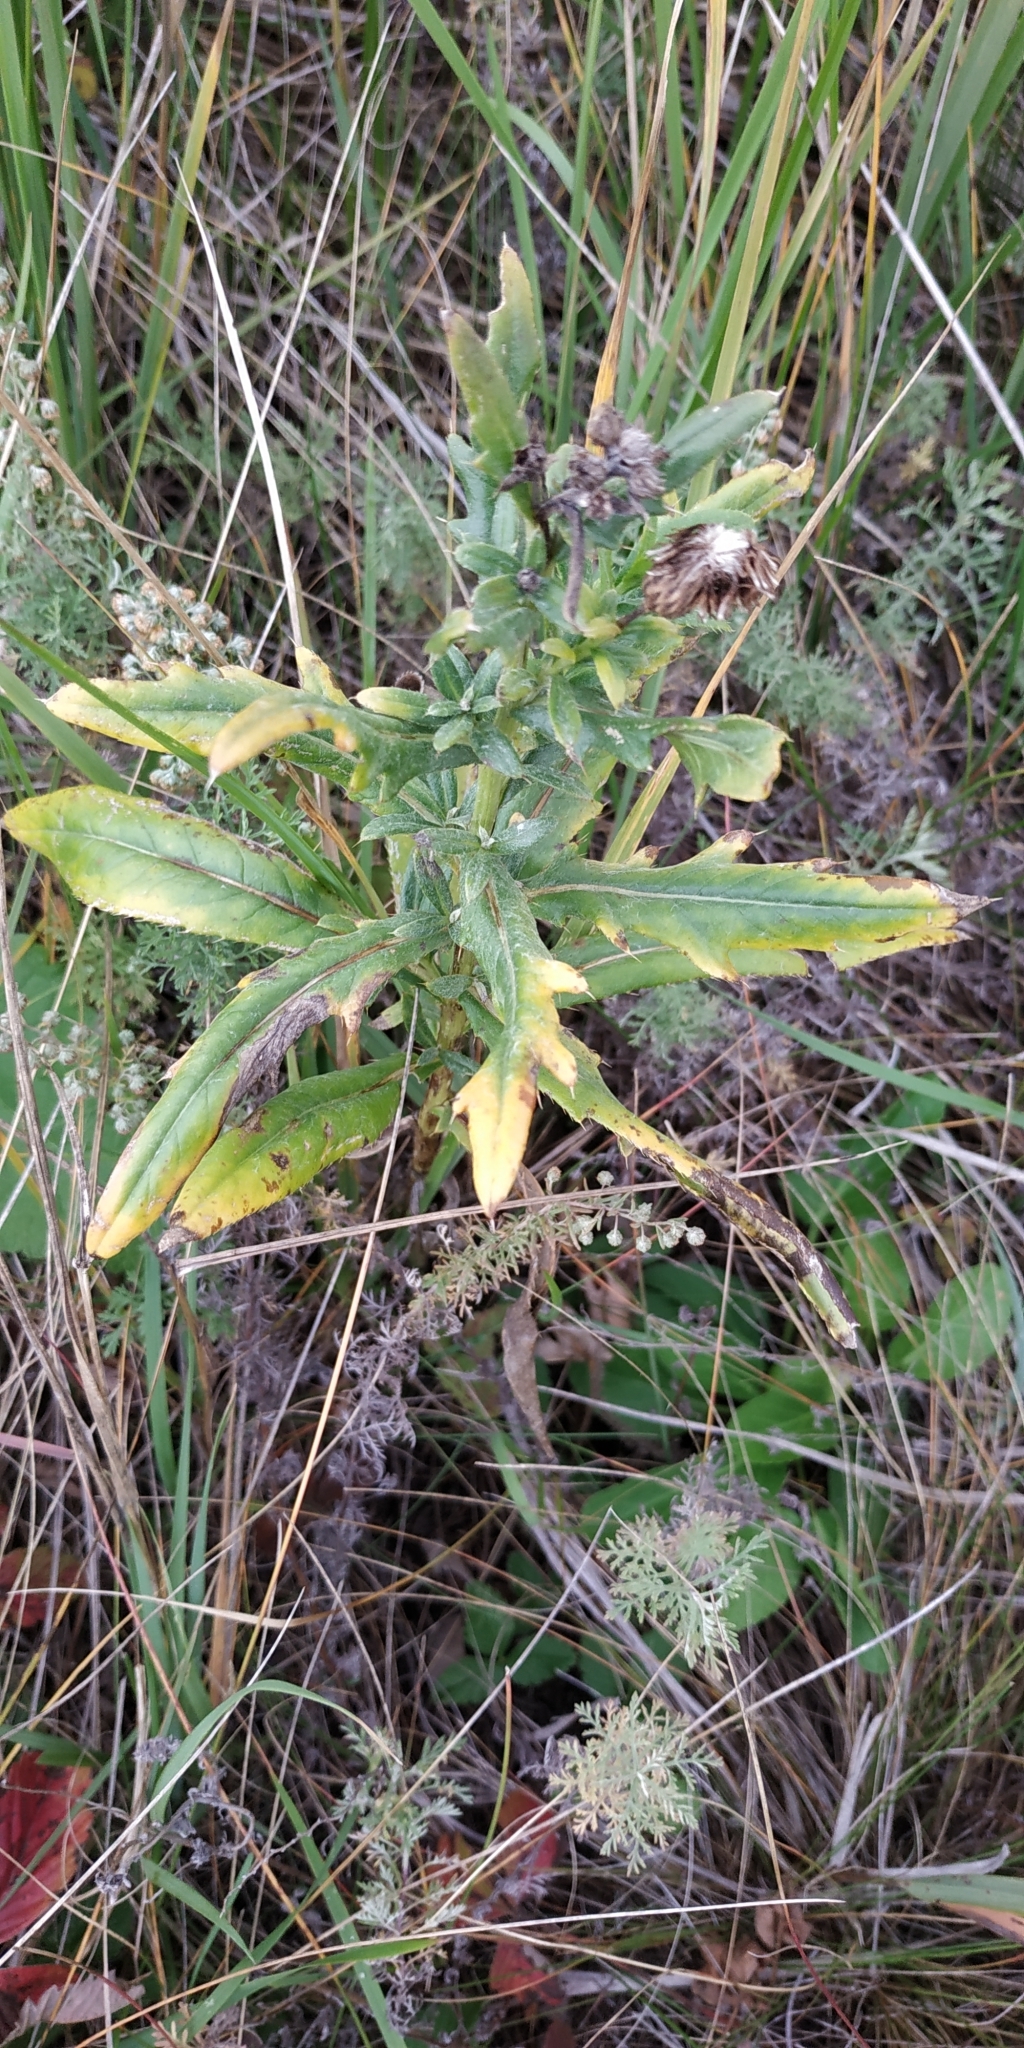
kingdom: Plantae
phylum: Tracheophyta
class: Magnoliopsida
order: Asterales
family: Asteraceae
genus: Cirsium
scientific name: Cirsium arvense
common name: Creeping thistle
